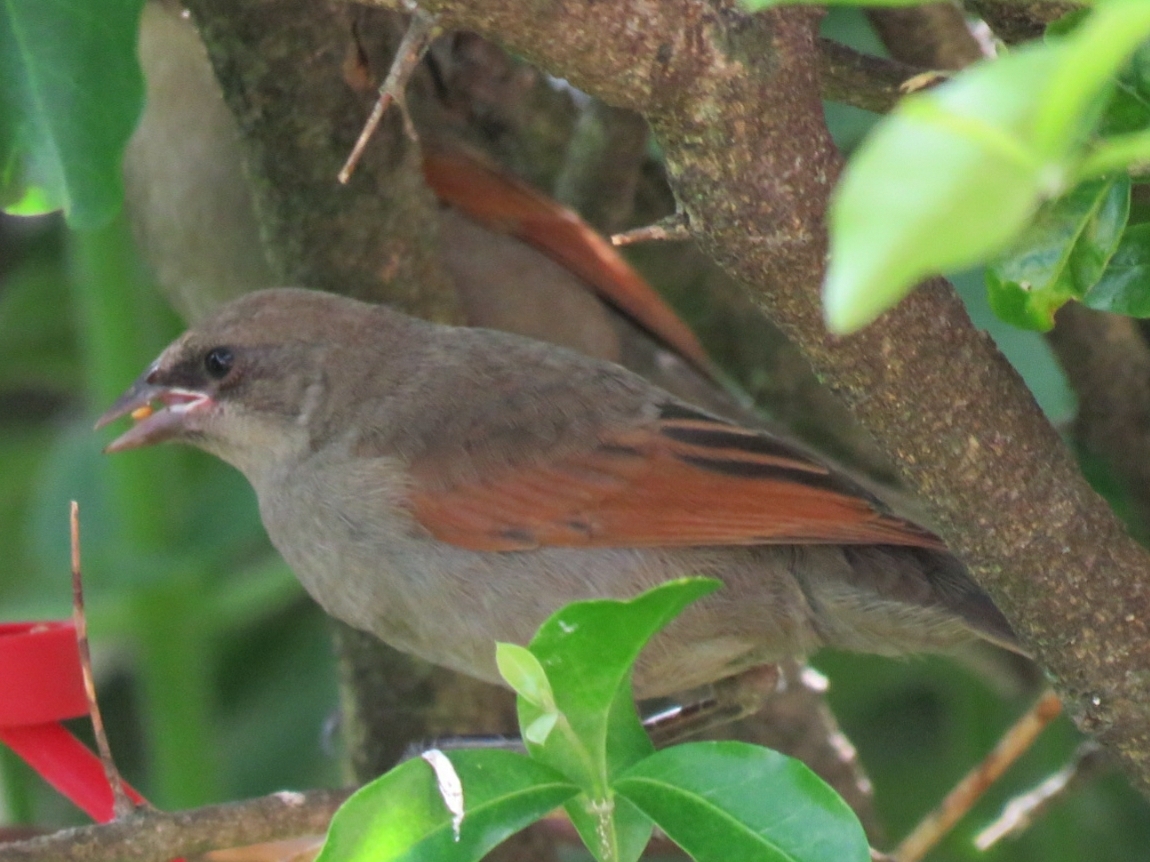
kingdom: Animalia
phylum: Chordata
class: Aves
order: Passeriformes
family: Icteridae
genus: Agelaioides
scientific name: Agelaioides badius
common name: Baywing
